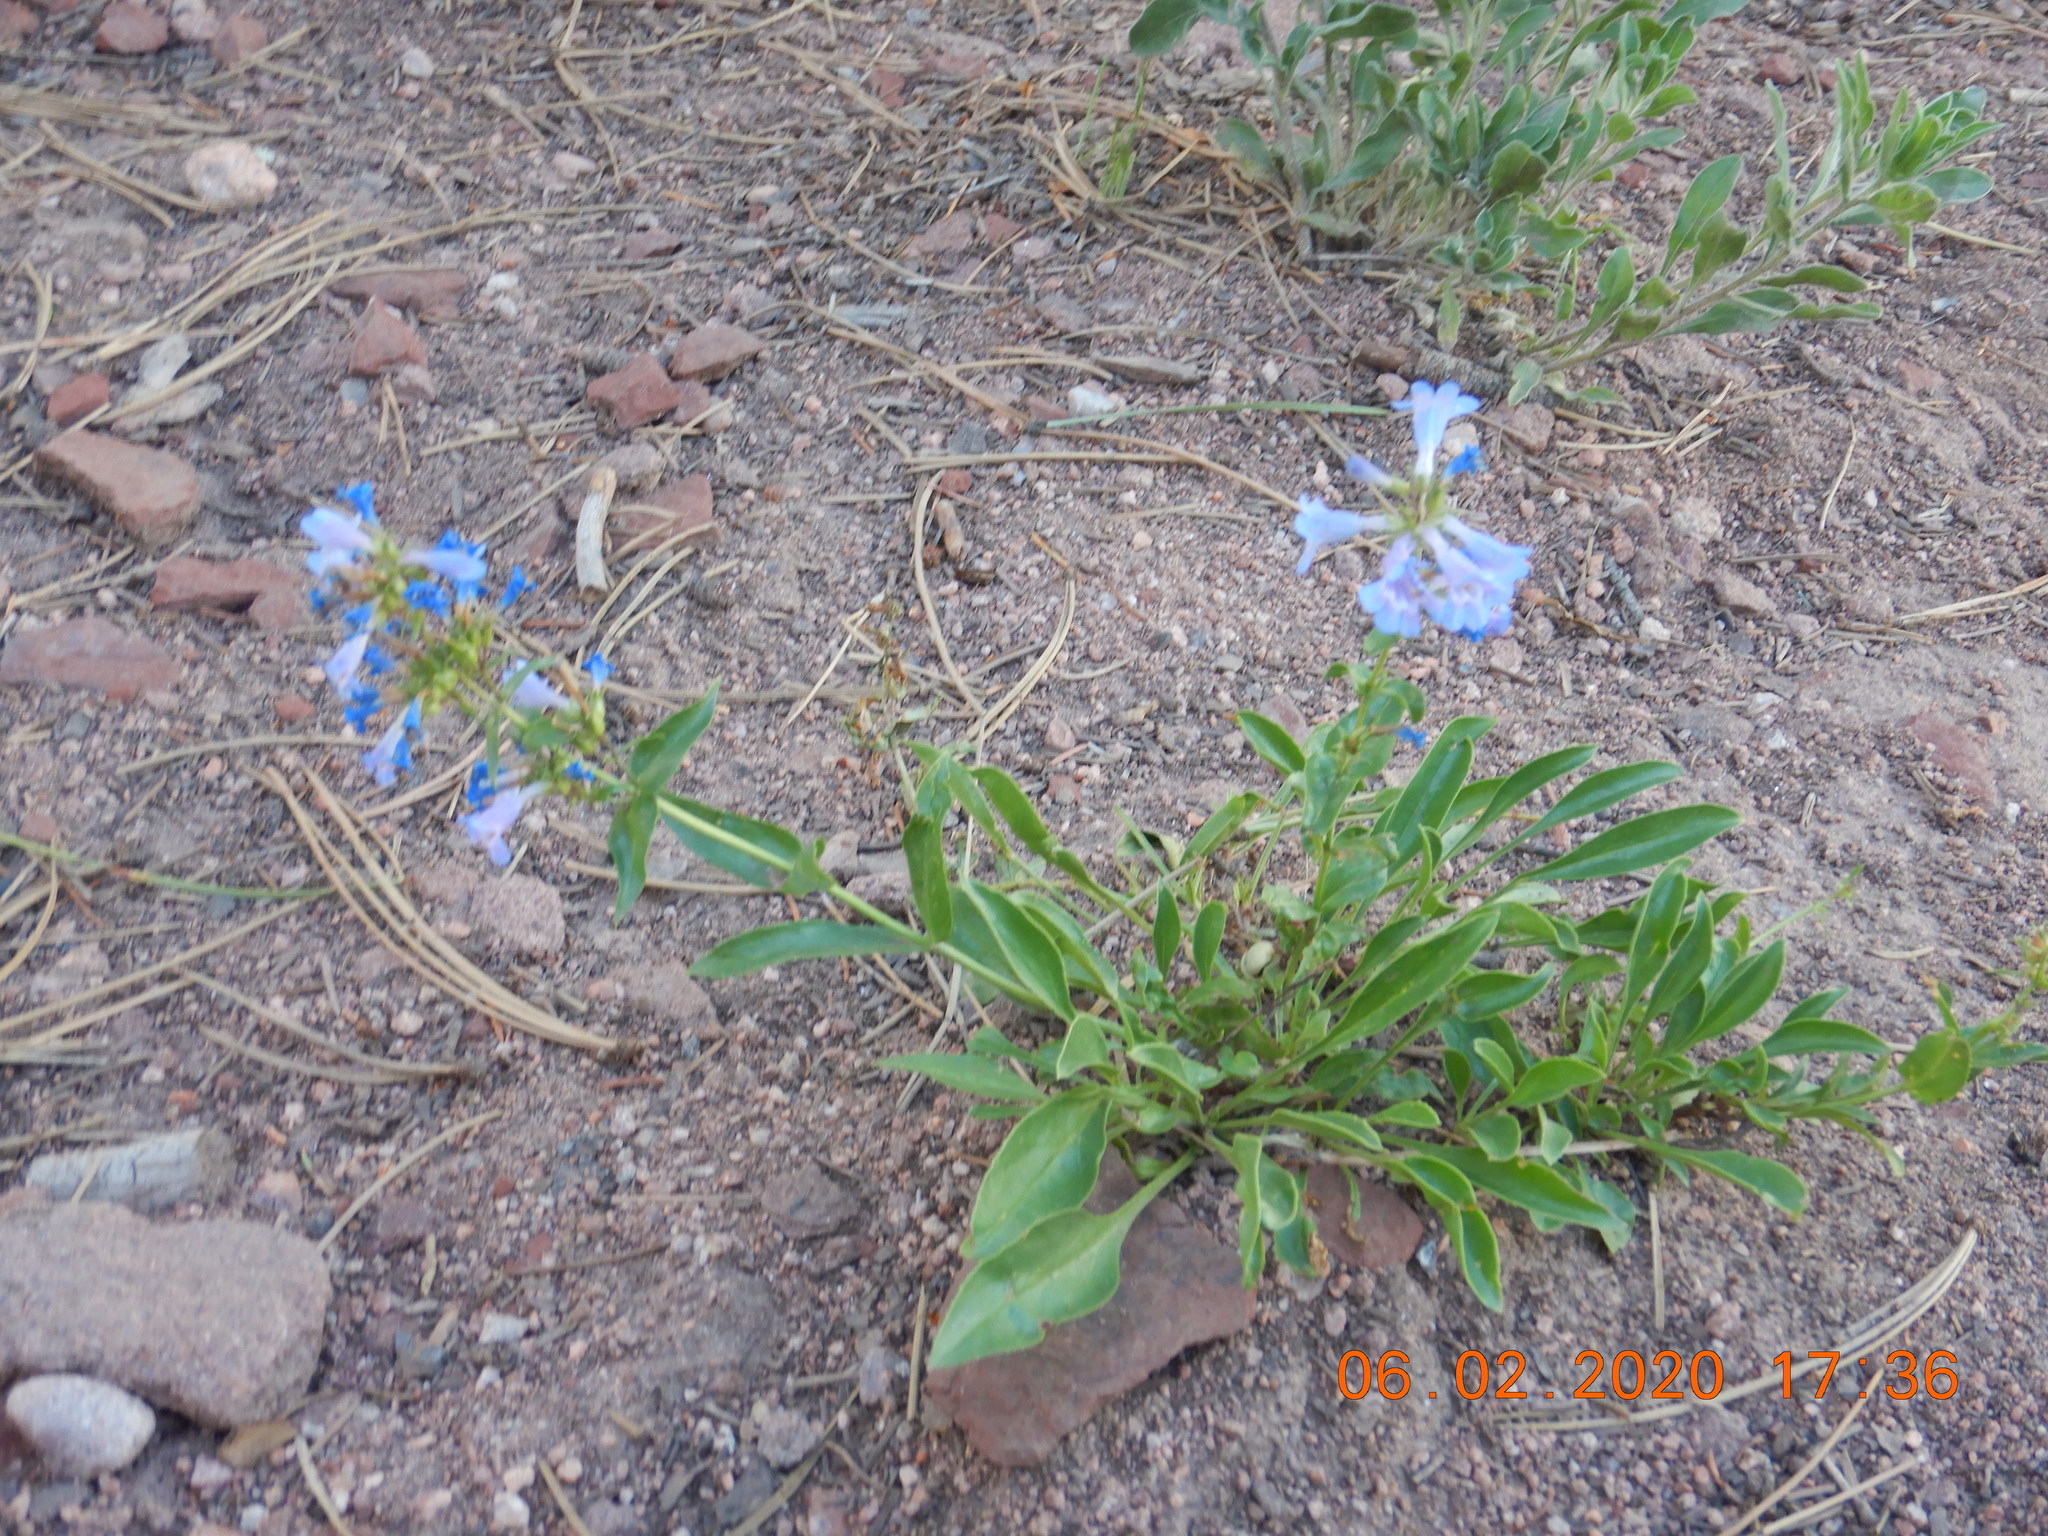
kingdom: Plantae
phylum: Tracheophyta
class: Magnoliopsida
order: Lamiales
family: Plantaginaceae
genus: Penstemon
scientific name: Penstemon virens
